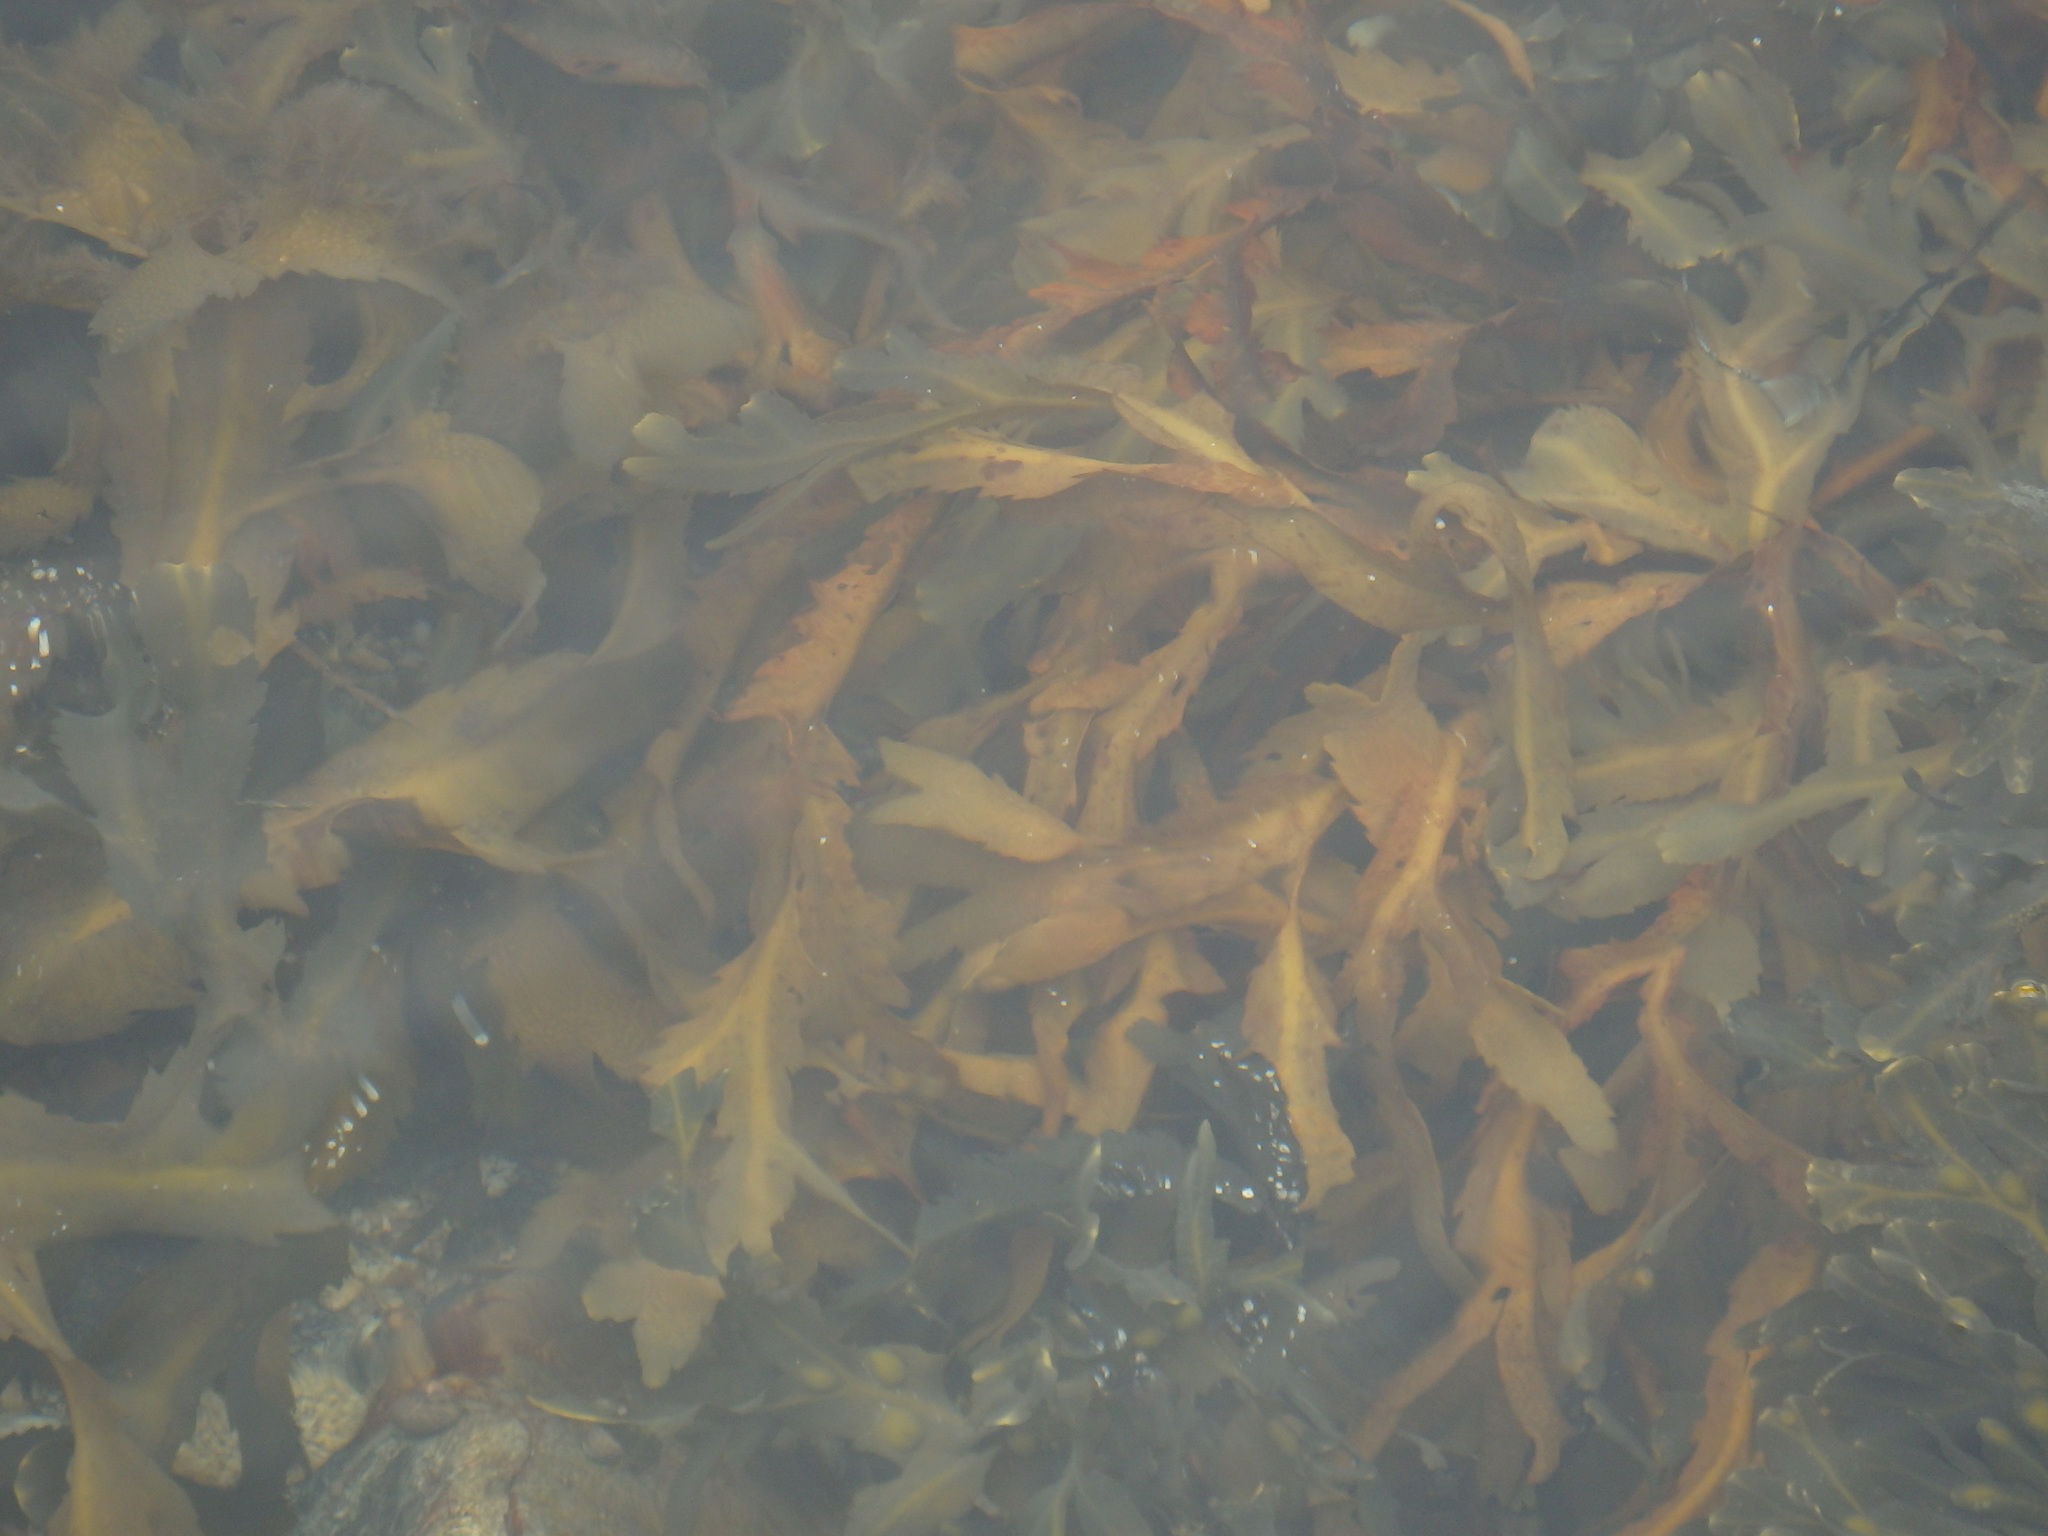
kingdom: Chromista
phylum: Ochrophyta
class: Phaeophyceae
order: Fucales
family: Fucaceae
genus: Fucus
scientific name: Fucus serratus
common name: Toothed wrack
